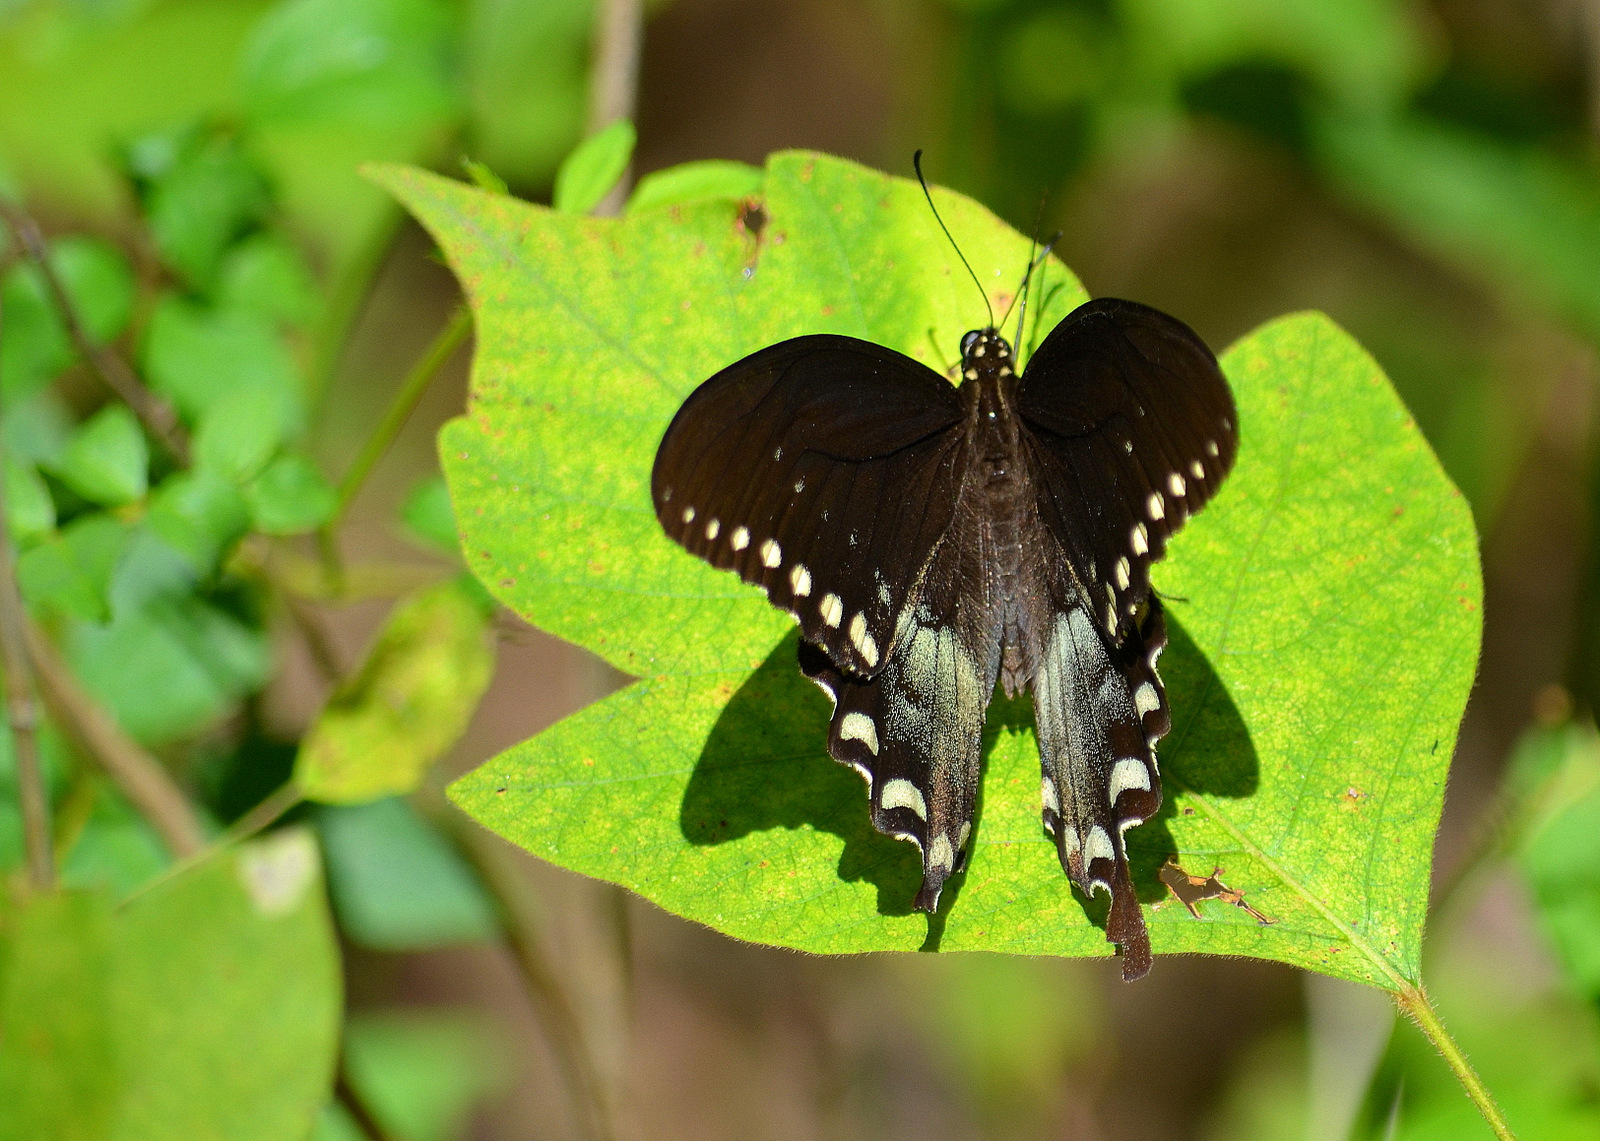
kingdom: Animalia
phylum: Arthropoda
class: Insecta
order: Lepidoptera
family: Papilionidae
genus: Papilio
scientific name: Papilio troilus
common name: Spicebush swallowtail
